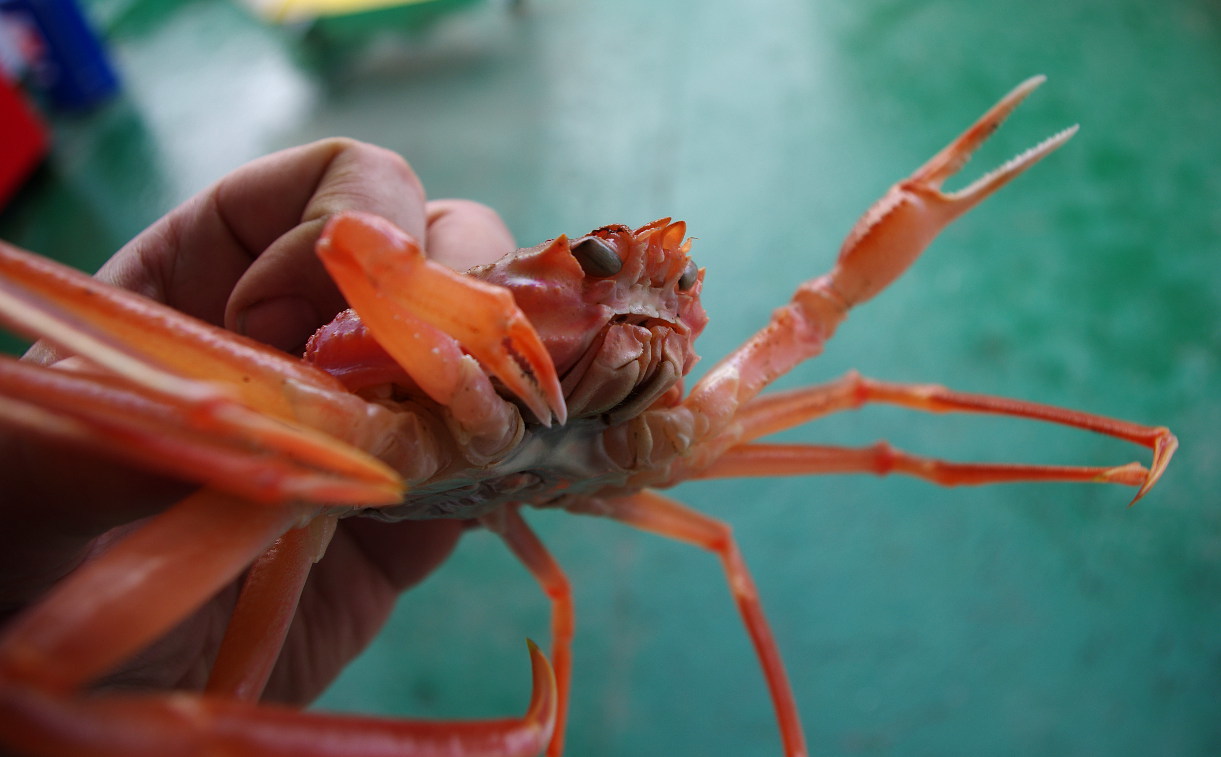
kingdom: Animalia
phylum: Arthropoda
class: Malacostraca
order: Decapoda
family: Oregoniidae
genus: Chionoecetes
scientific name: Chionoecetes opilio
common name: Atlantic snow crab
